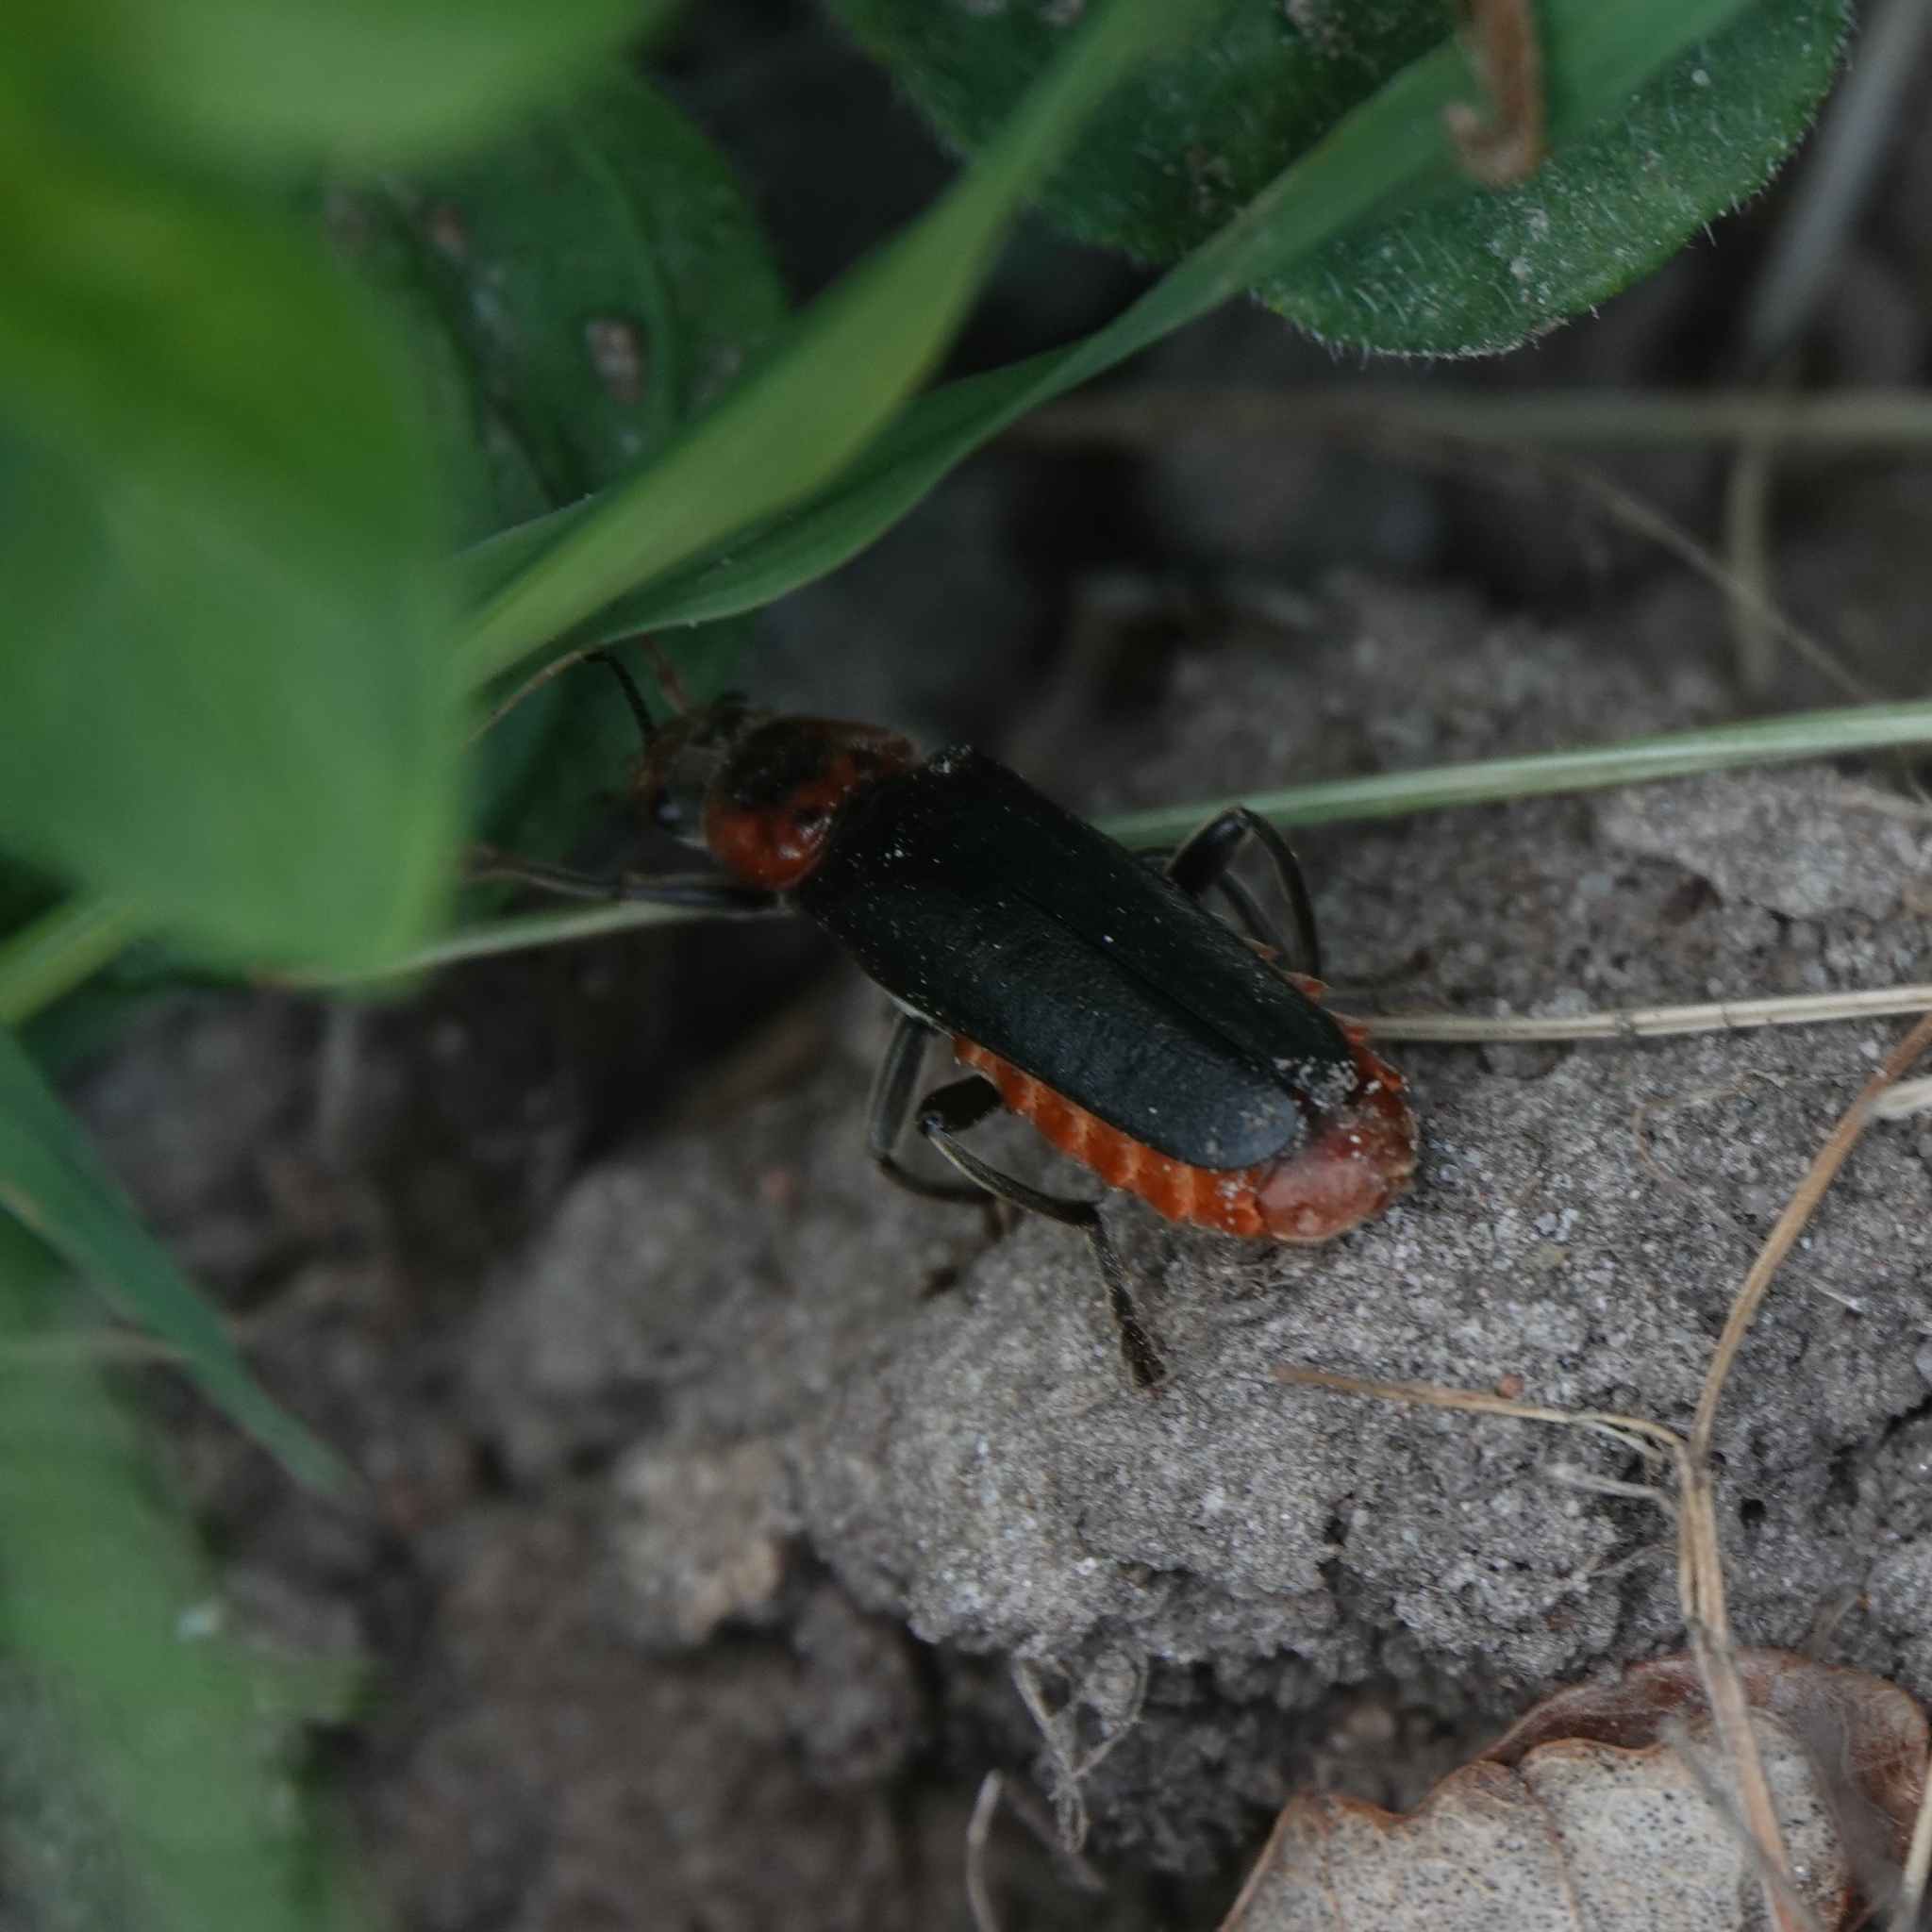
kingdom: Animalia
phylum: Arthropoda
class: Insecta
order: Coleoptera
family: Cantharidae
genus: Cantharis
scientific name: Cantharis fusca
